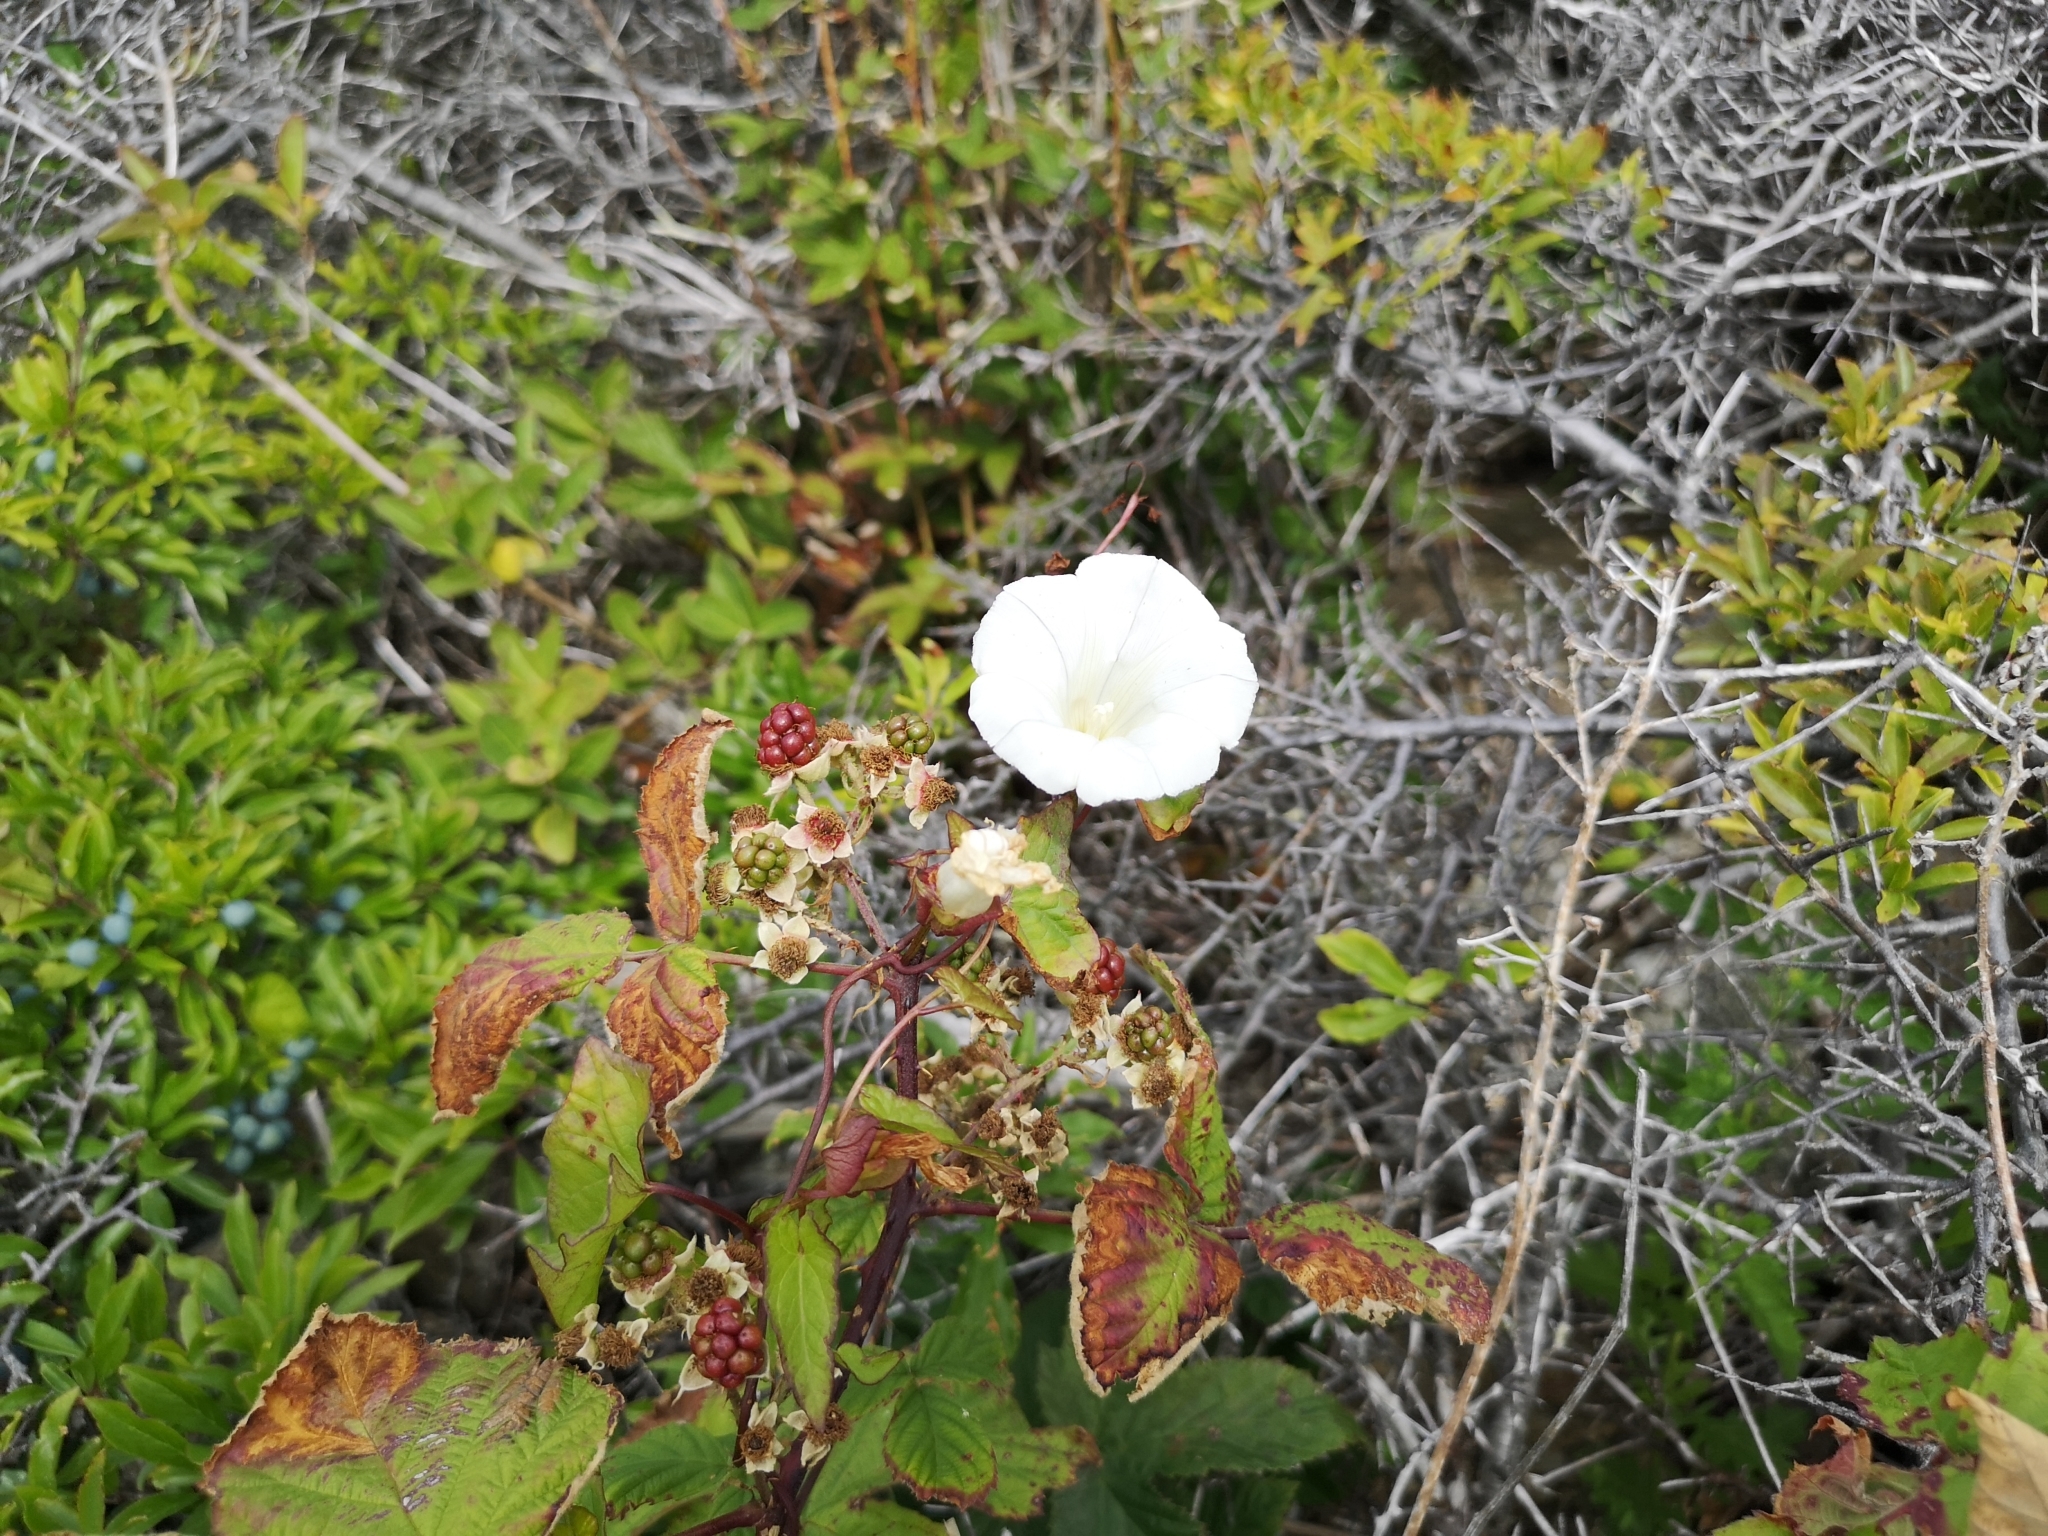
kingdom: Plantae
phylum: Tracheophyta
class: Magnoliopsida
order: Solanales
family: Convolvulaceae
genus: Calystegia
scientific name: Calystegia sepium
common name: Hedge bindweed
